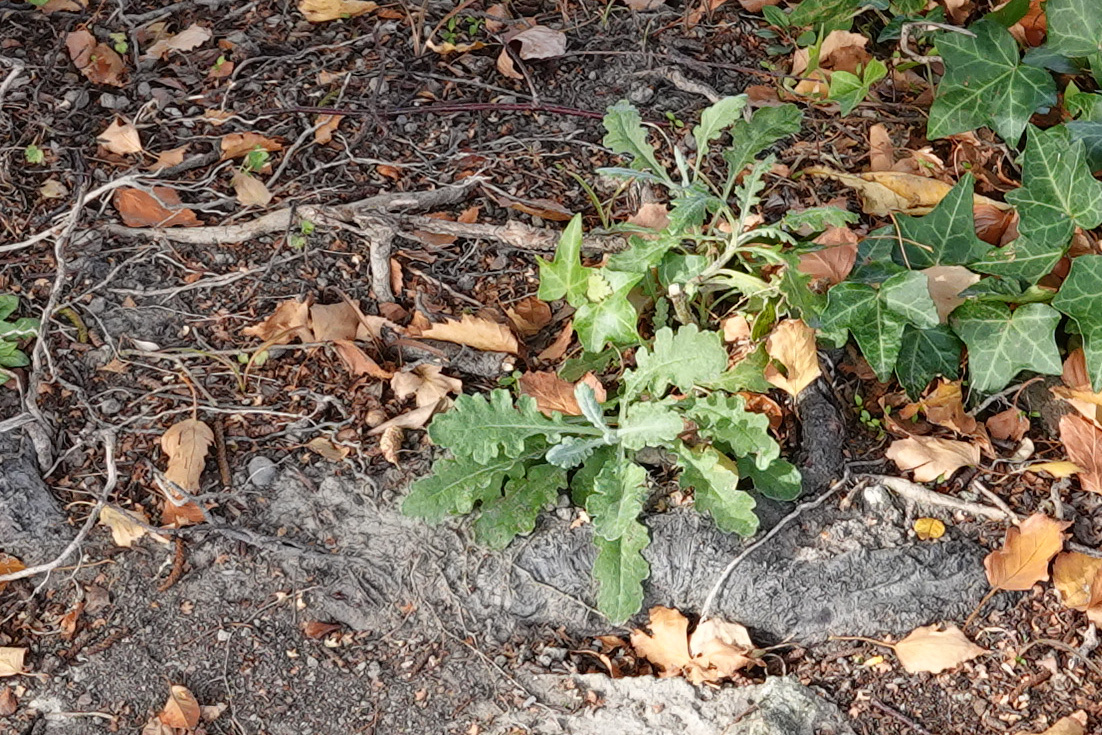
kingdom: Plantae
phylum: Tracheophyta
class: Magnoliopsida
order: Asterales
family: Asteraceae
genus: Senecio
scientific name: Senecio glomeratus
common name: Cutleaf burnweed
